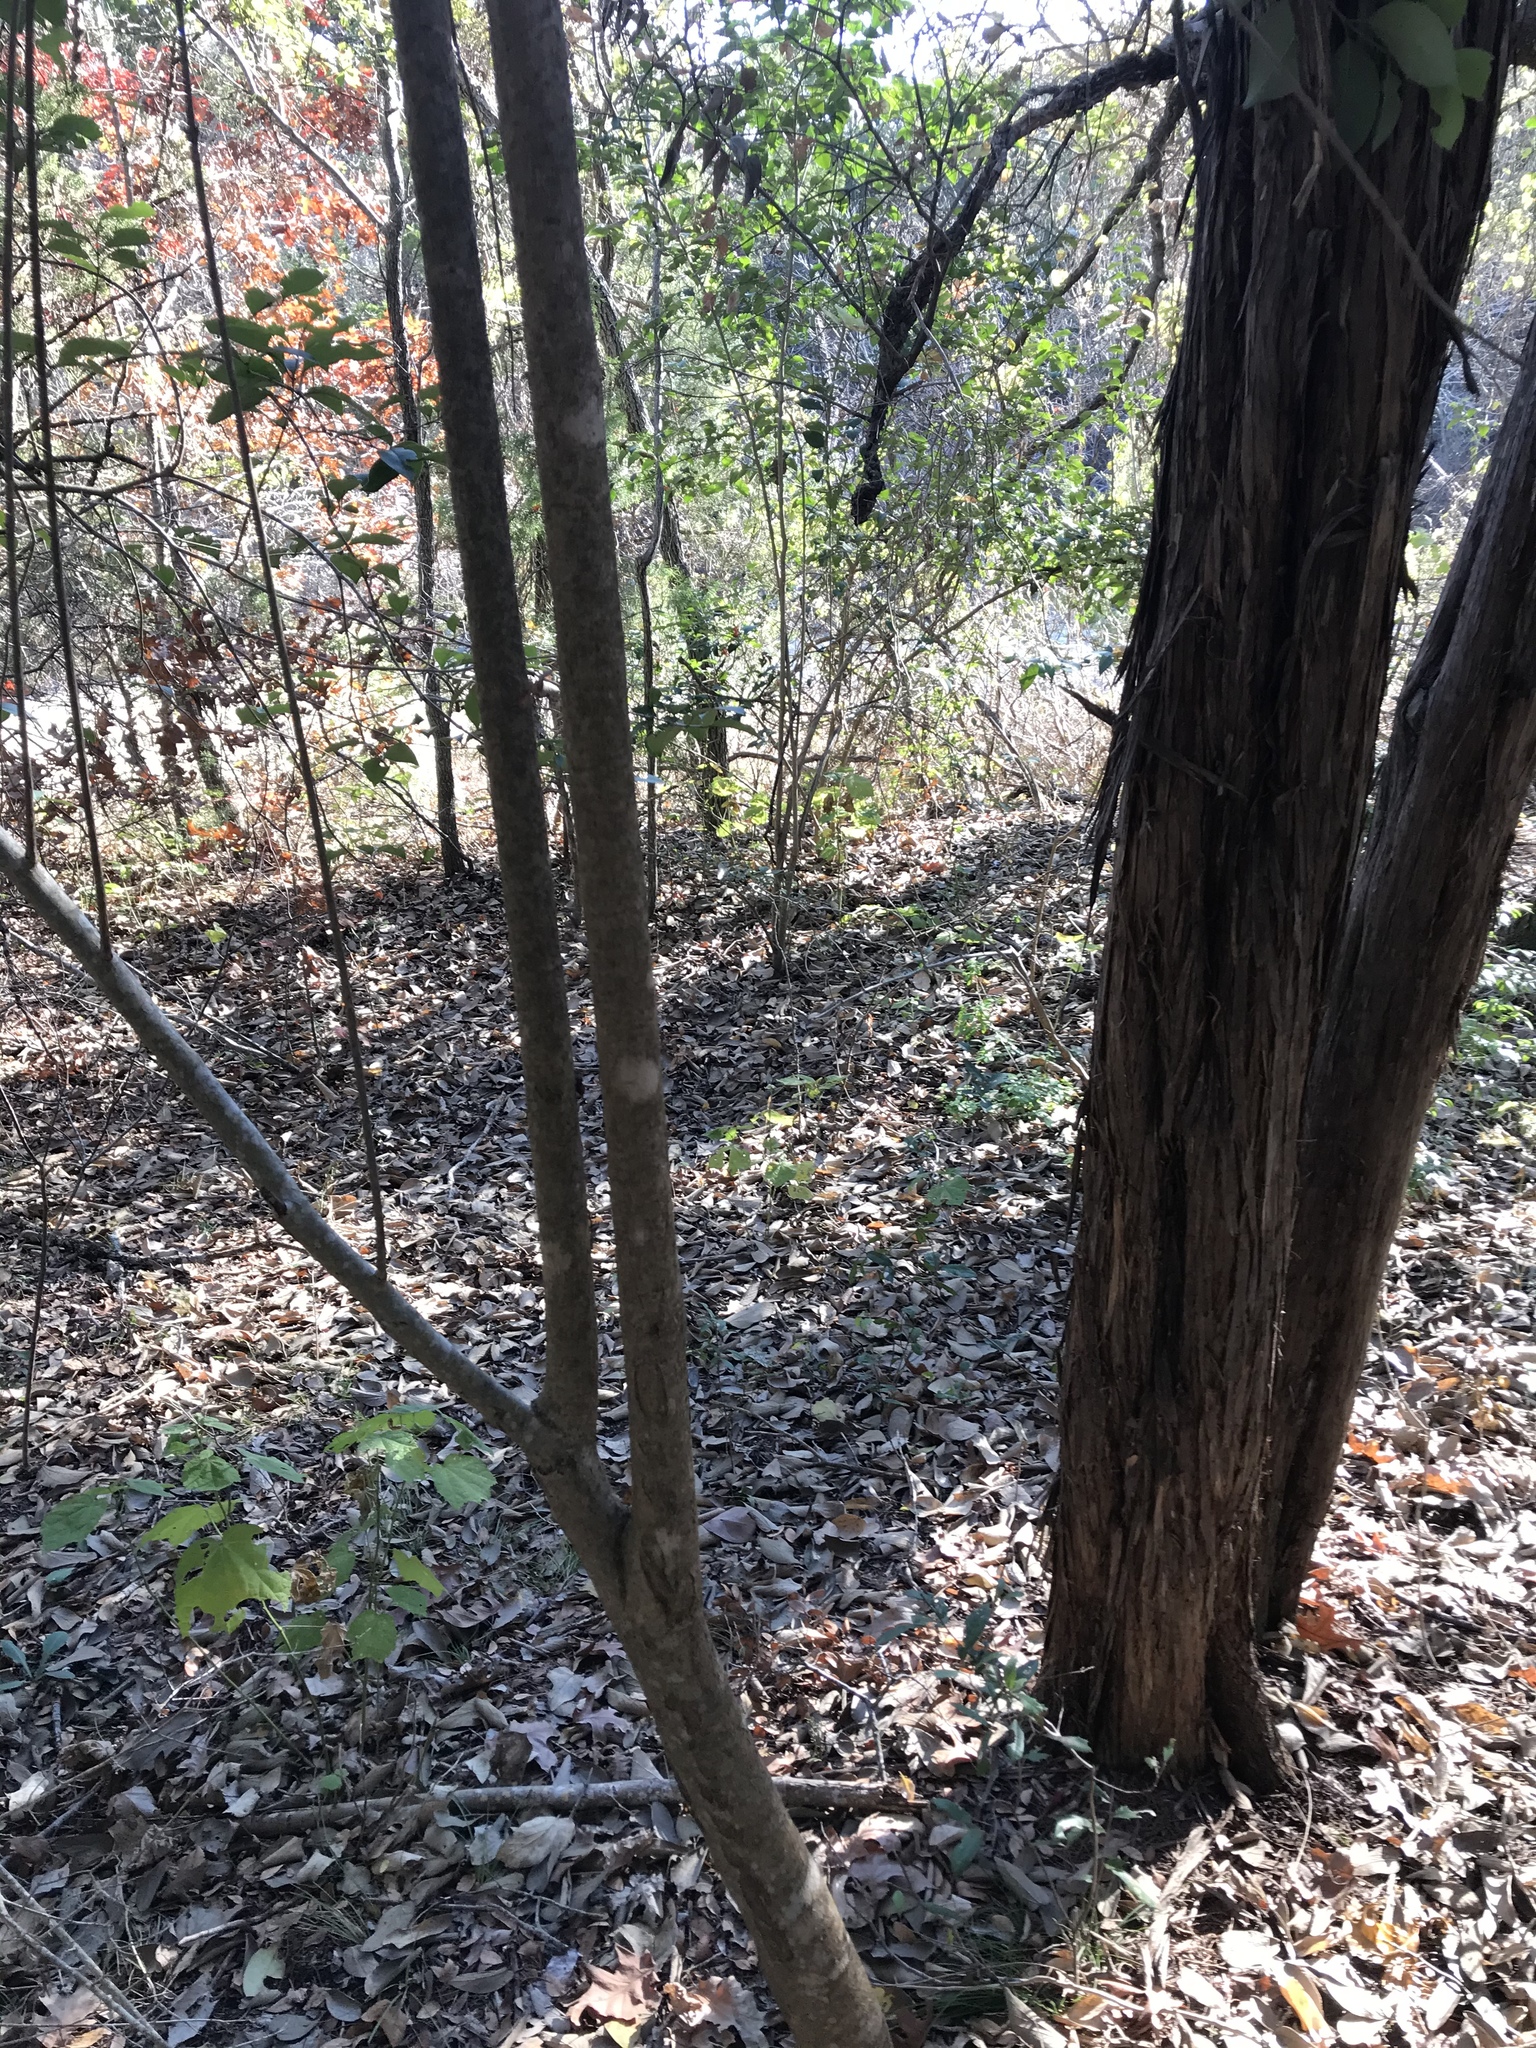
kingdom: Plantae
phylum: Tracheophyta
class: Magnoliopsida
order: Lamiales
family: Oleaceae
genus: Ligustrum
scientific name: Ligustrum lucidum
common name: Glossy privet
